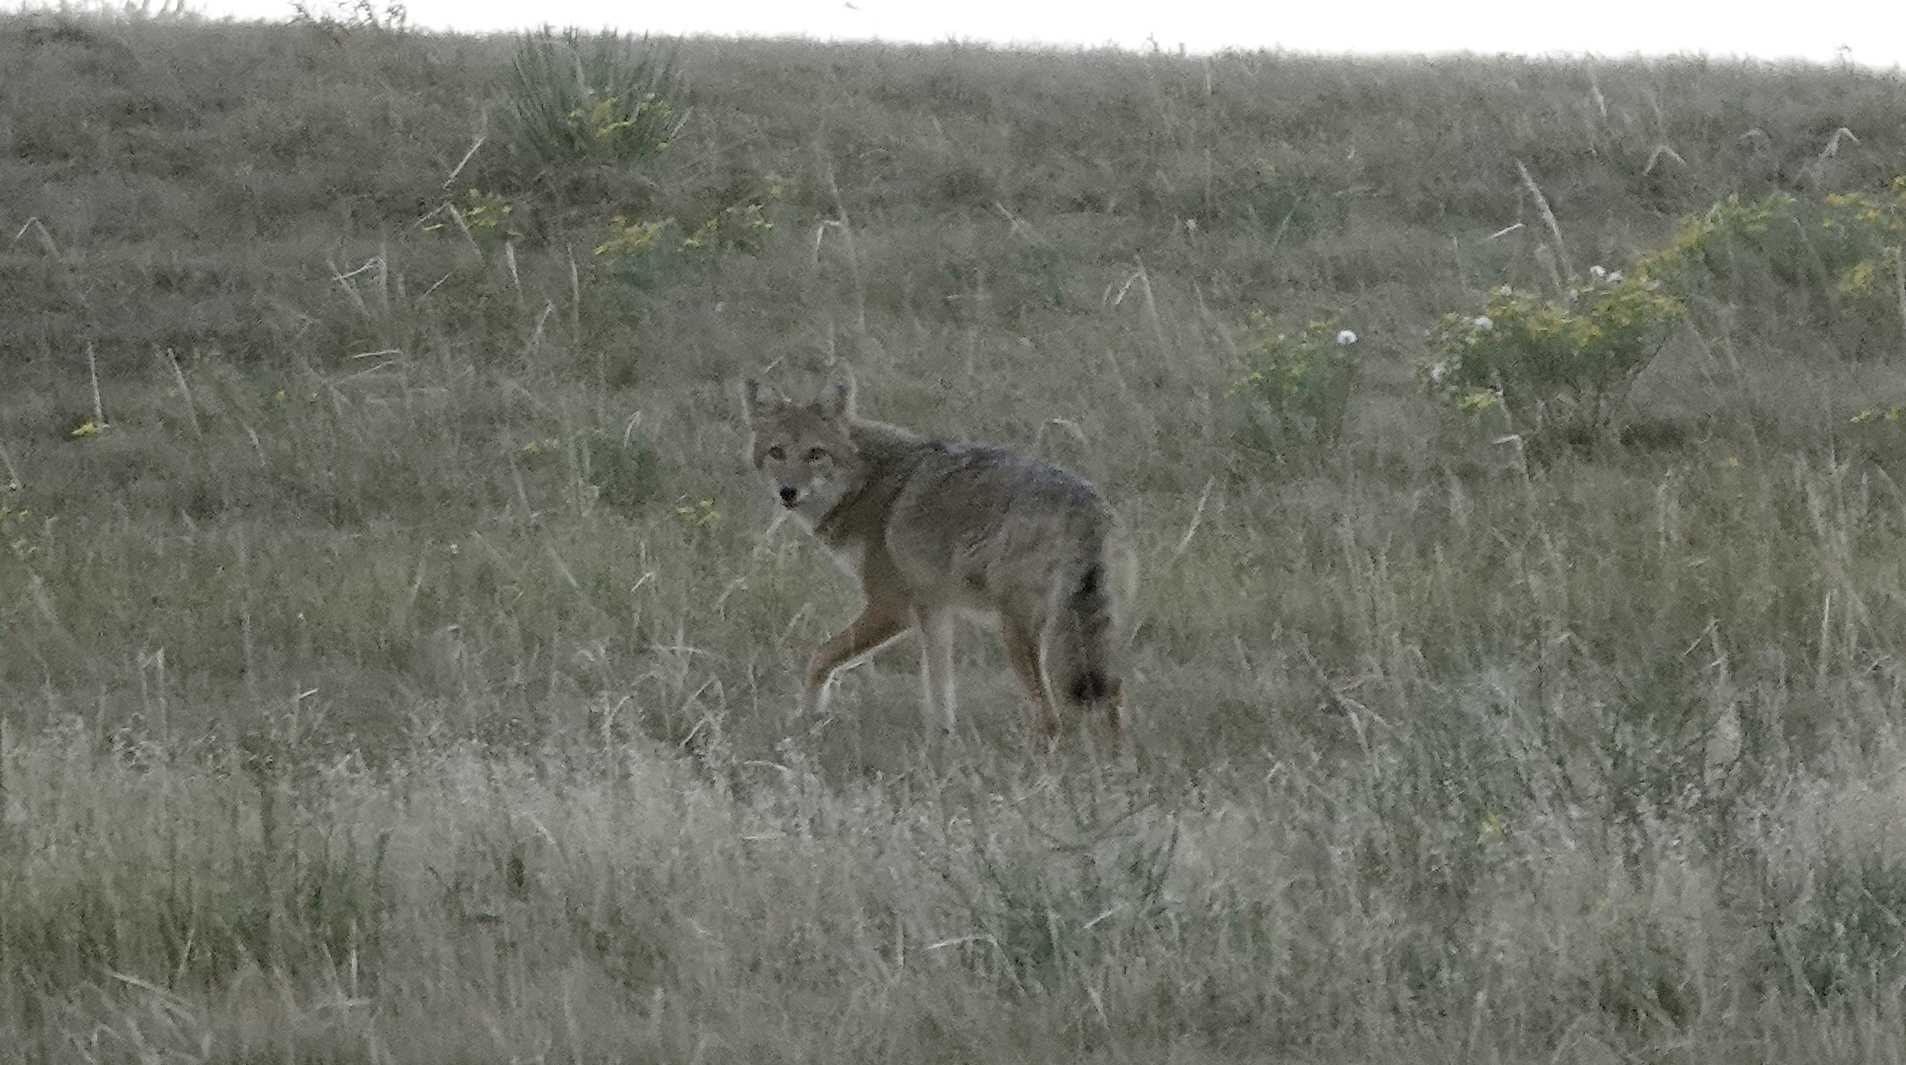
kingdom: Animalia
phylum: Chordata
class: Mammalia
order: Carnivora
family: Canidae
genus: Canis
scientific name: Canis latrans
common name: Coyote
